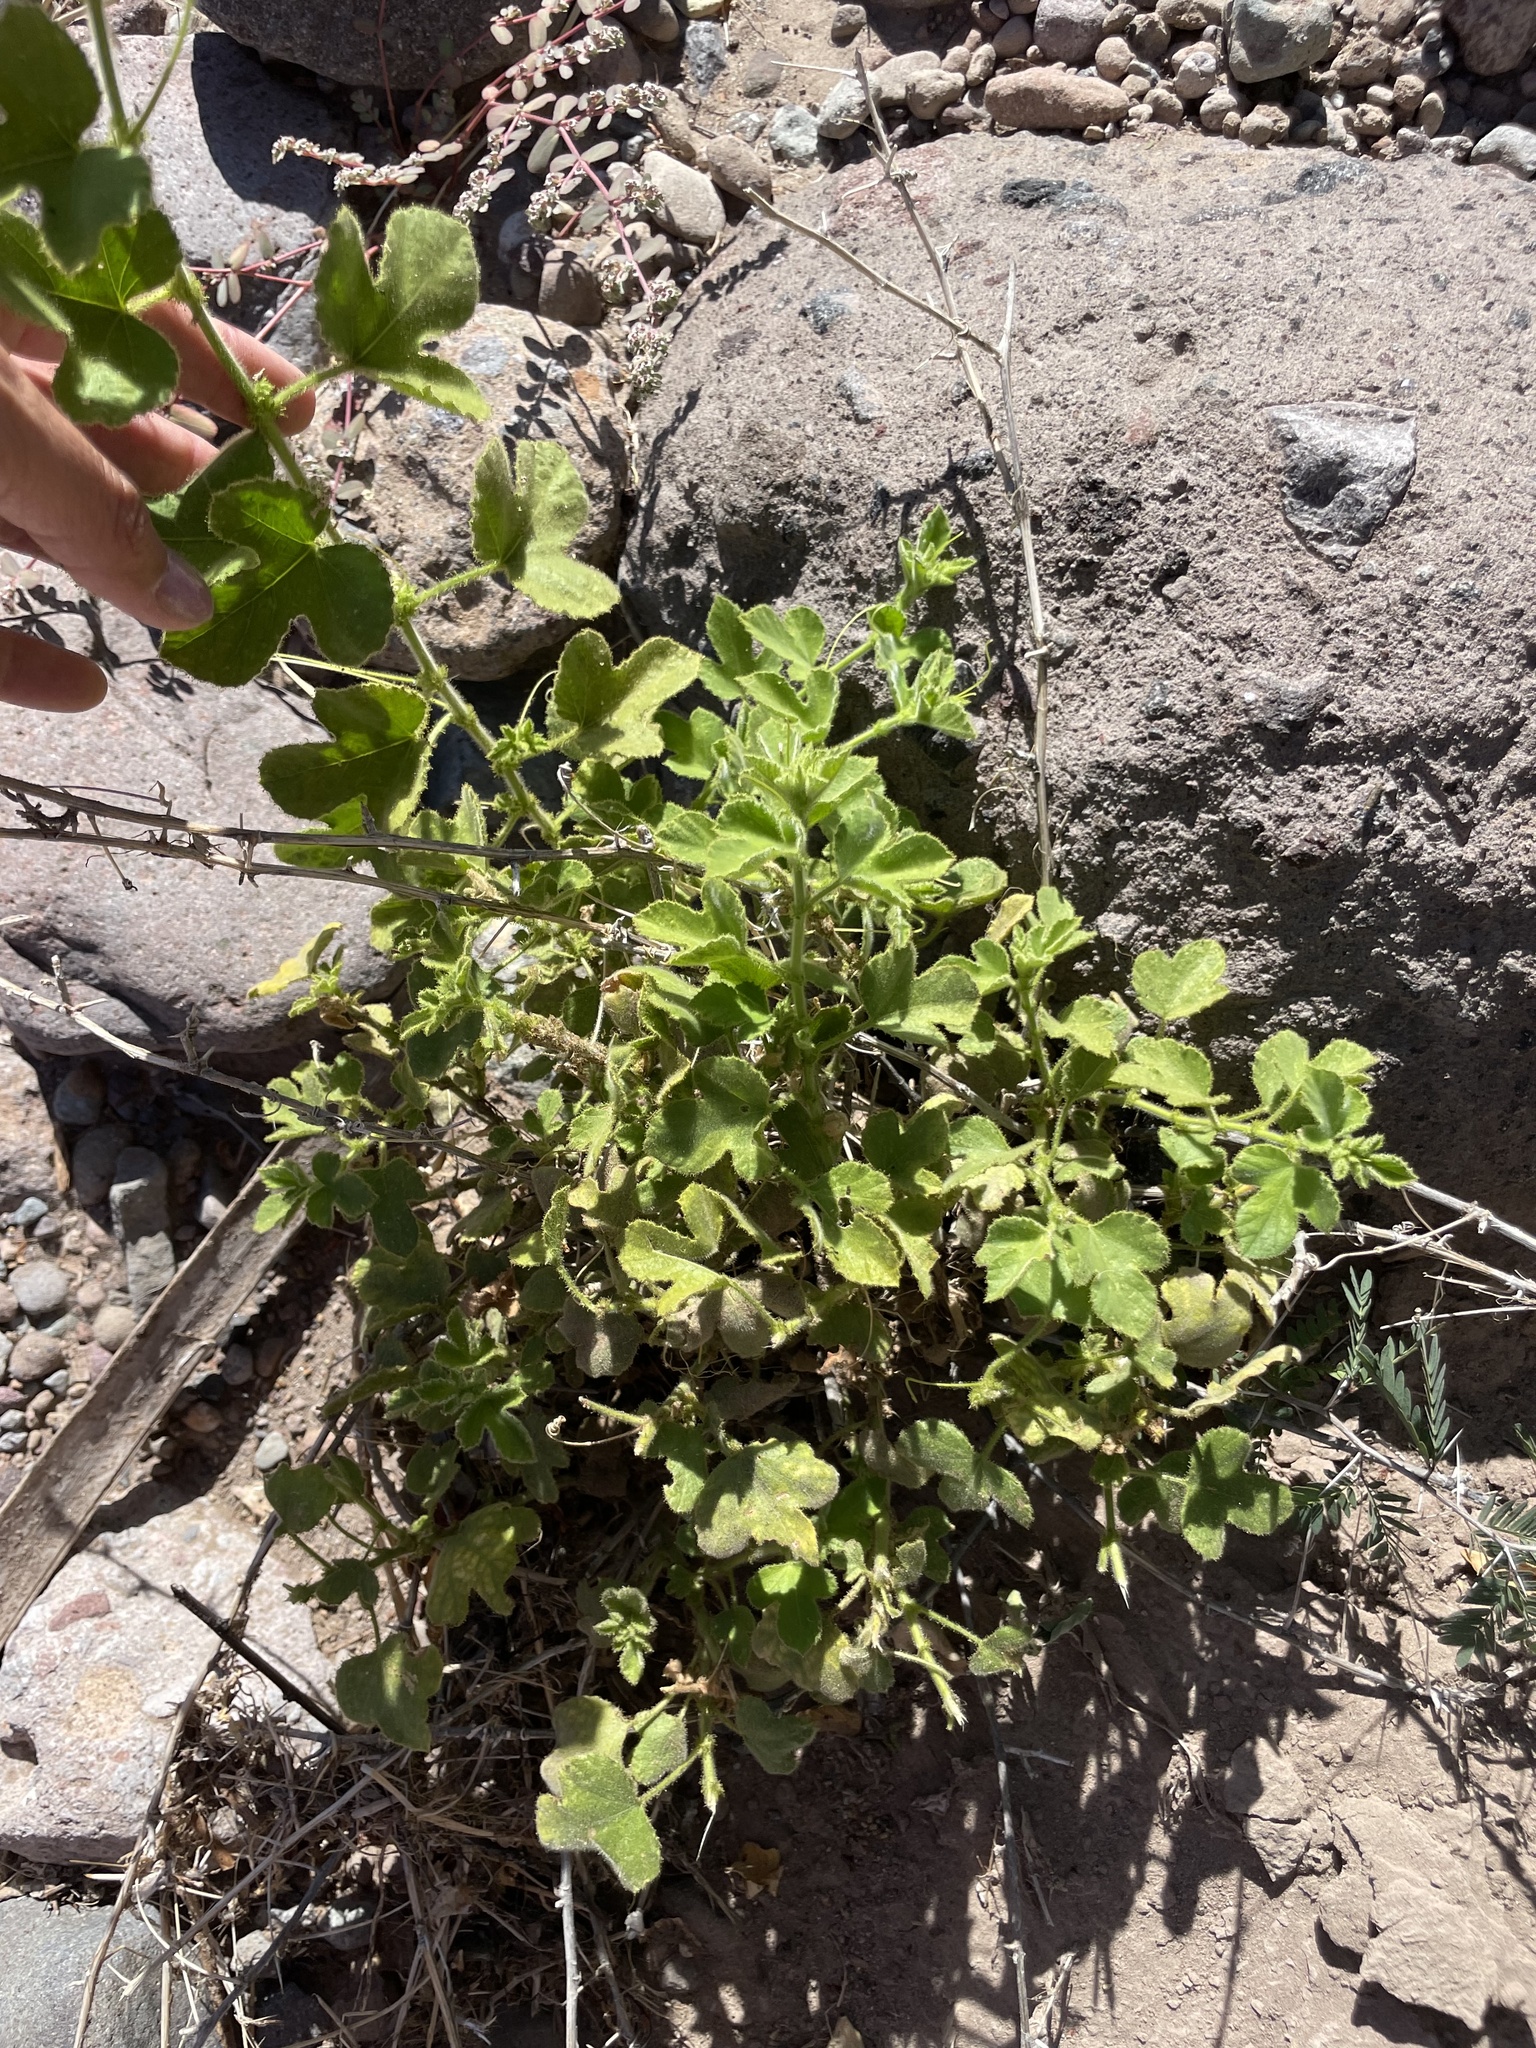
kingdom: Plantae
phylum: Tracheophyta
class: Magnoliopsida
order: Malpighiales
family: Passifloraceae
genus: Passiflora
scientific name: Passiflora palmeri
